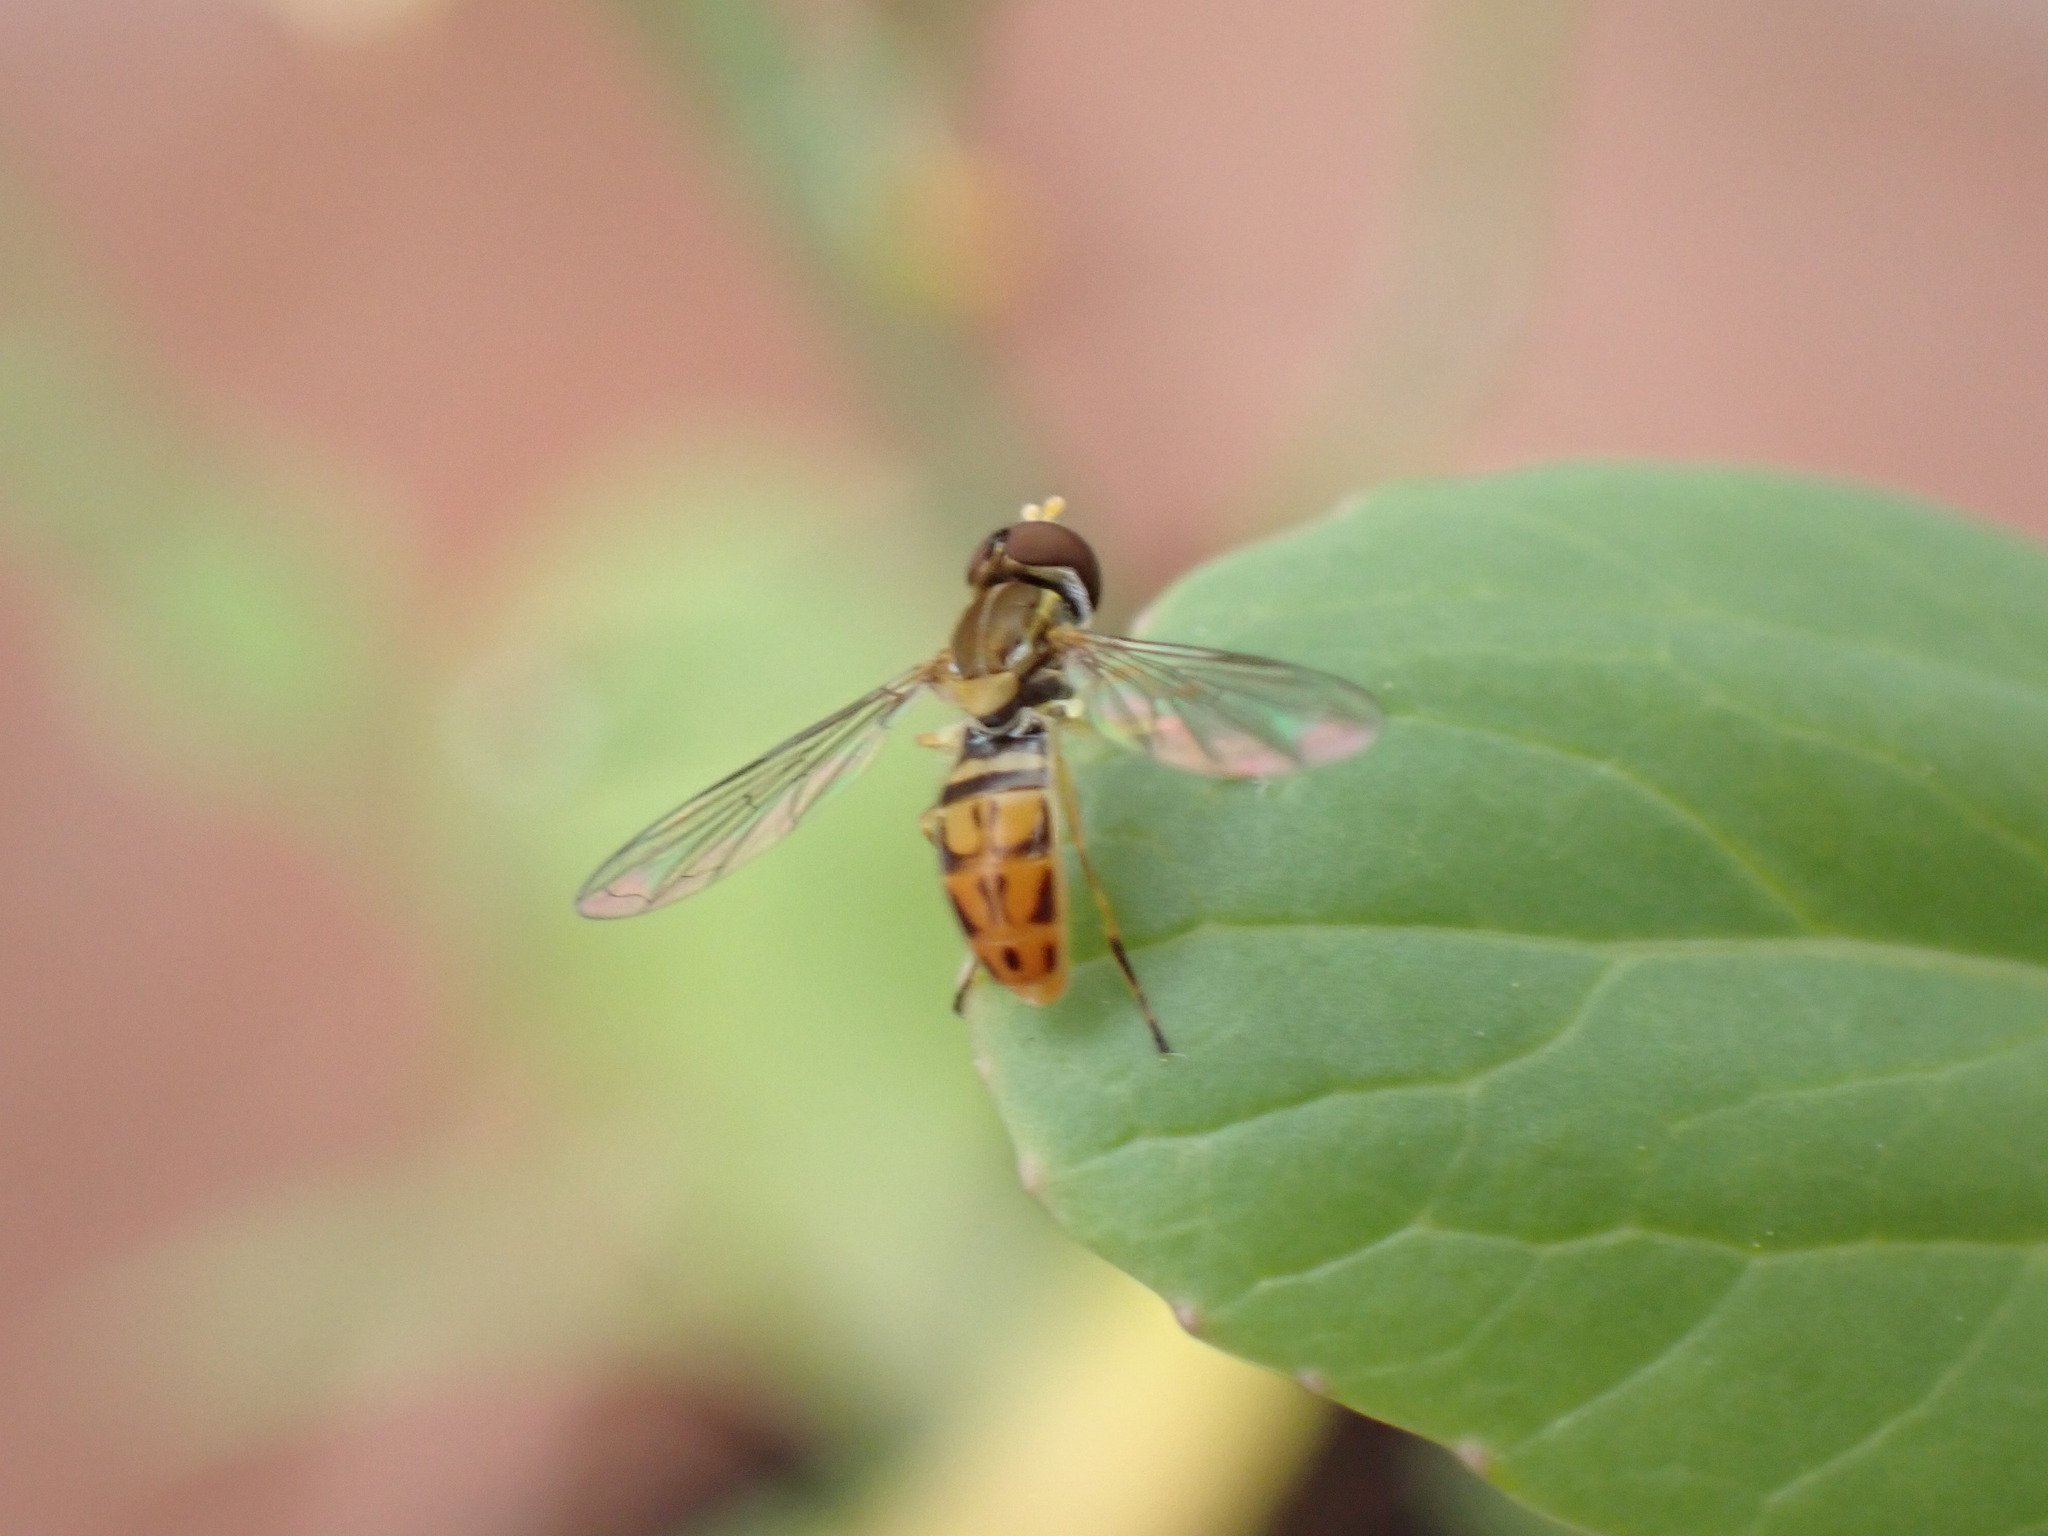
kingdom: Animalia
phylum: Arthropoda
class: Insecta
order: Diptera
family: Syrphidae
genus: Toxomerus
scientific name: Toxomerus marginatus
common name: Syrphid fly
